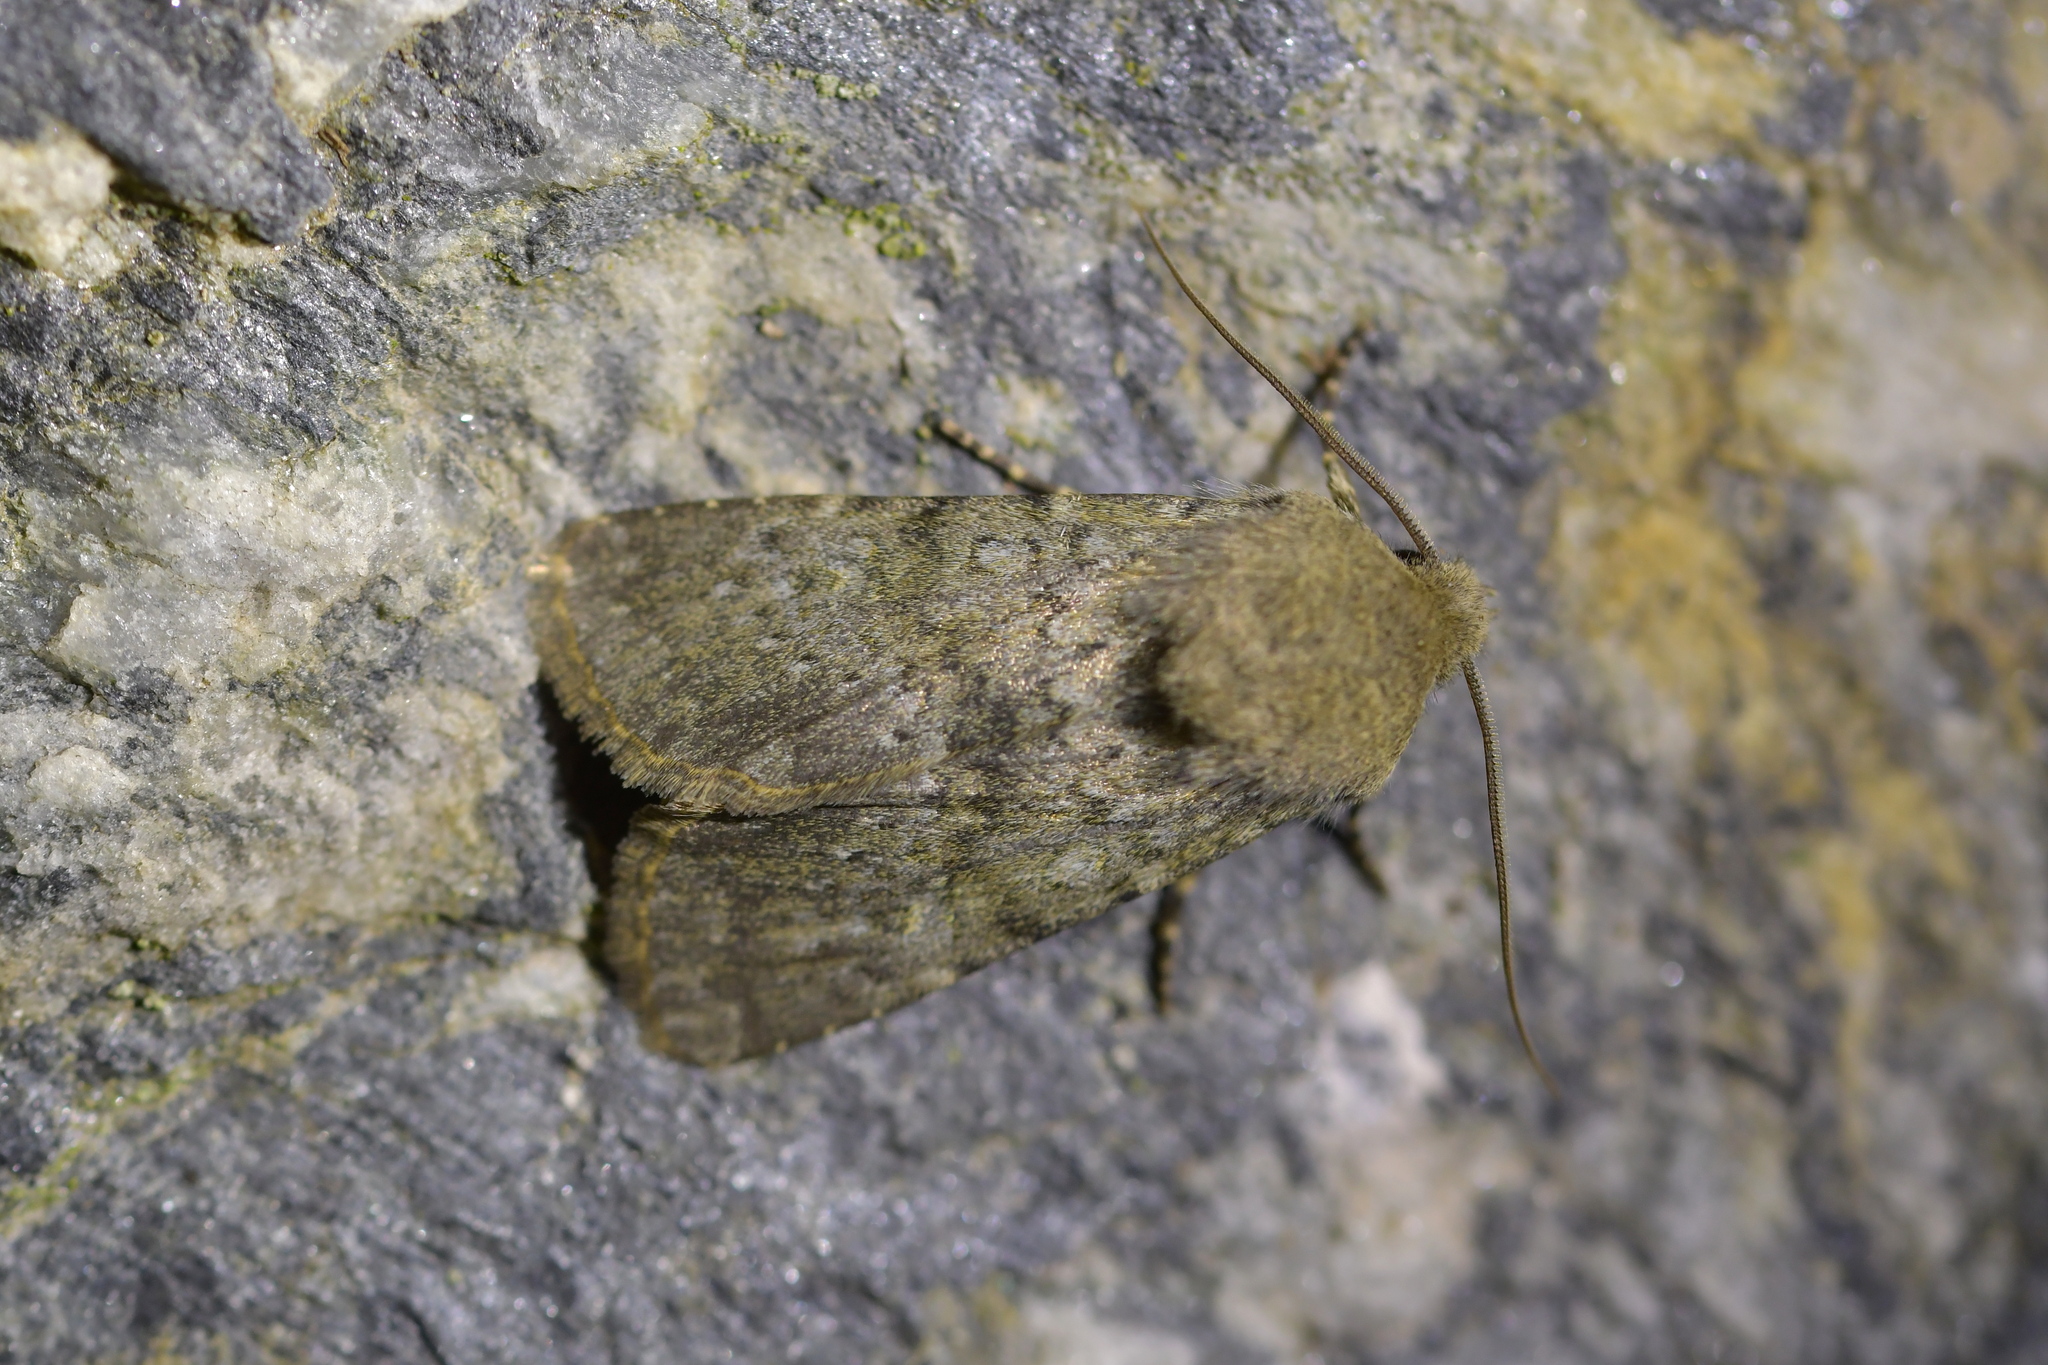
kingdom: Animalia
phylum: Arthropoda
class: Insecta
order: Lepidoptera
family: Noctuidae
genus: Ichneutica
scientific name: Ichneutica moderata
